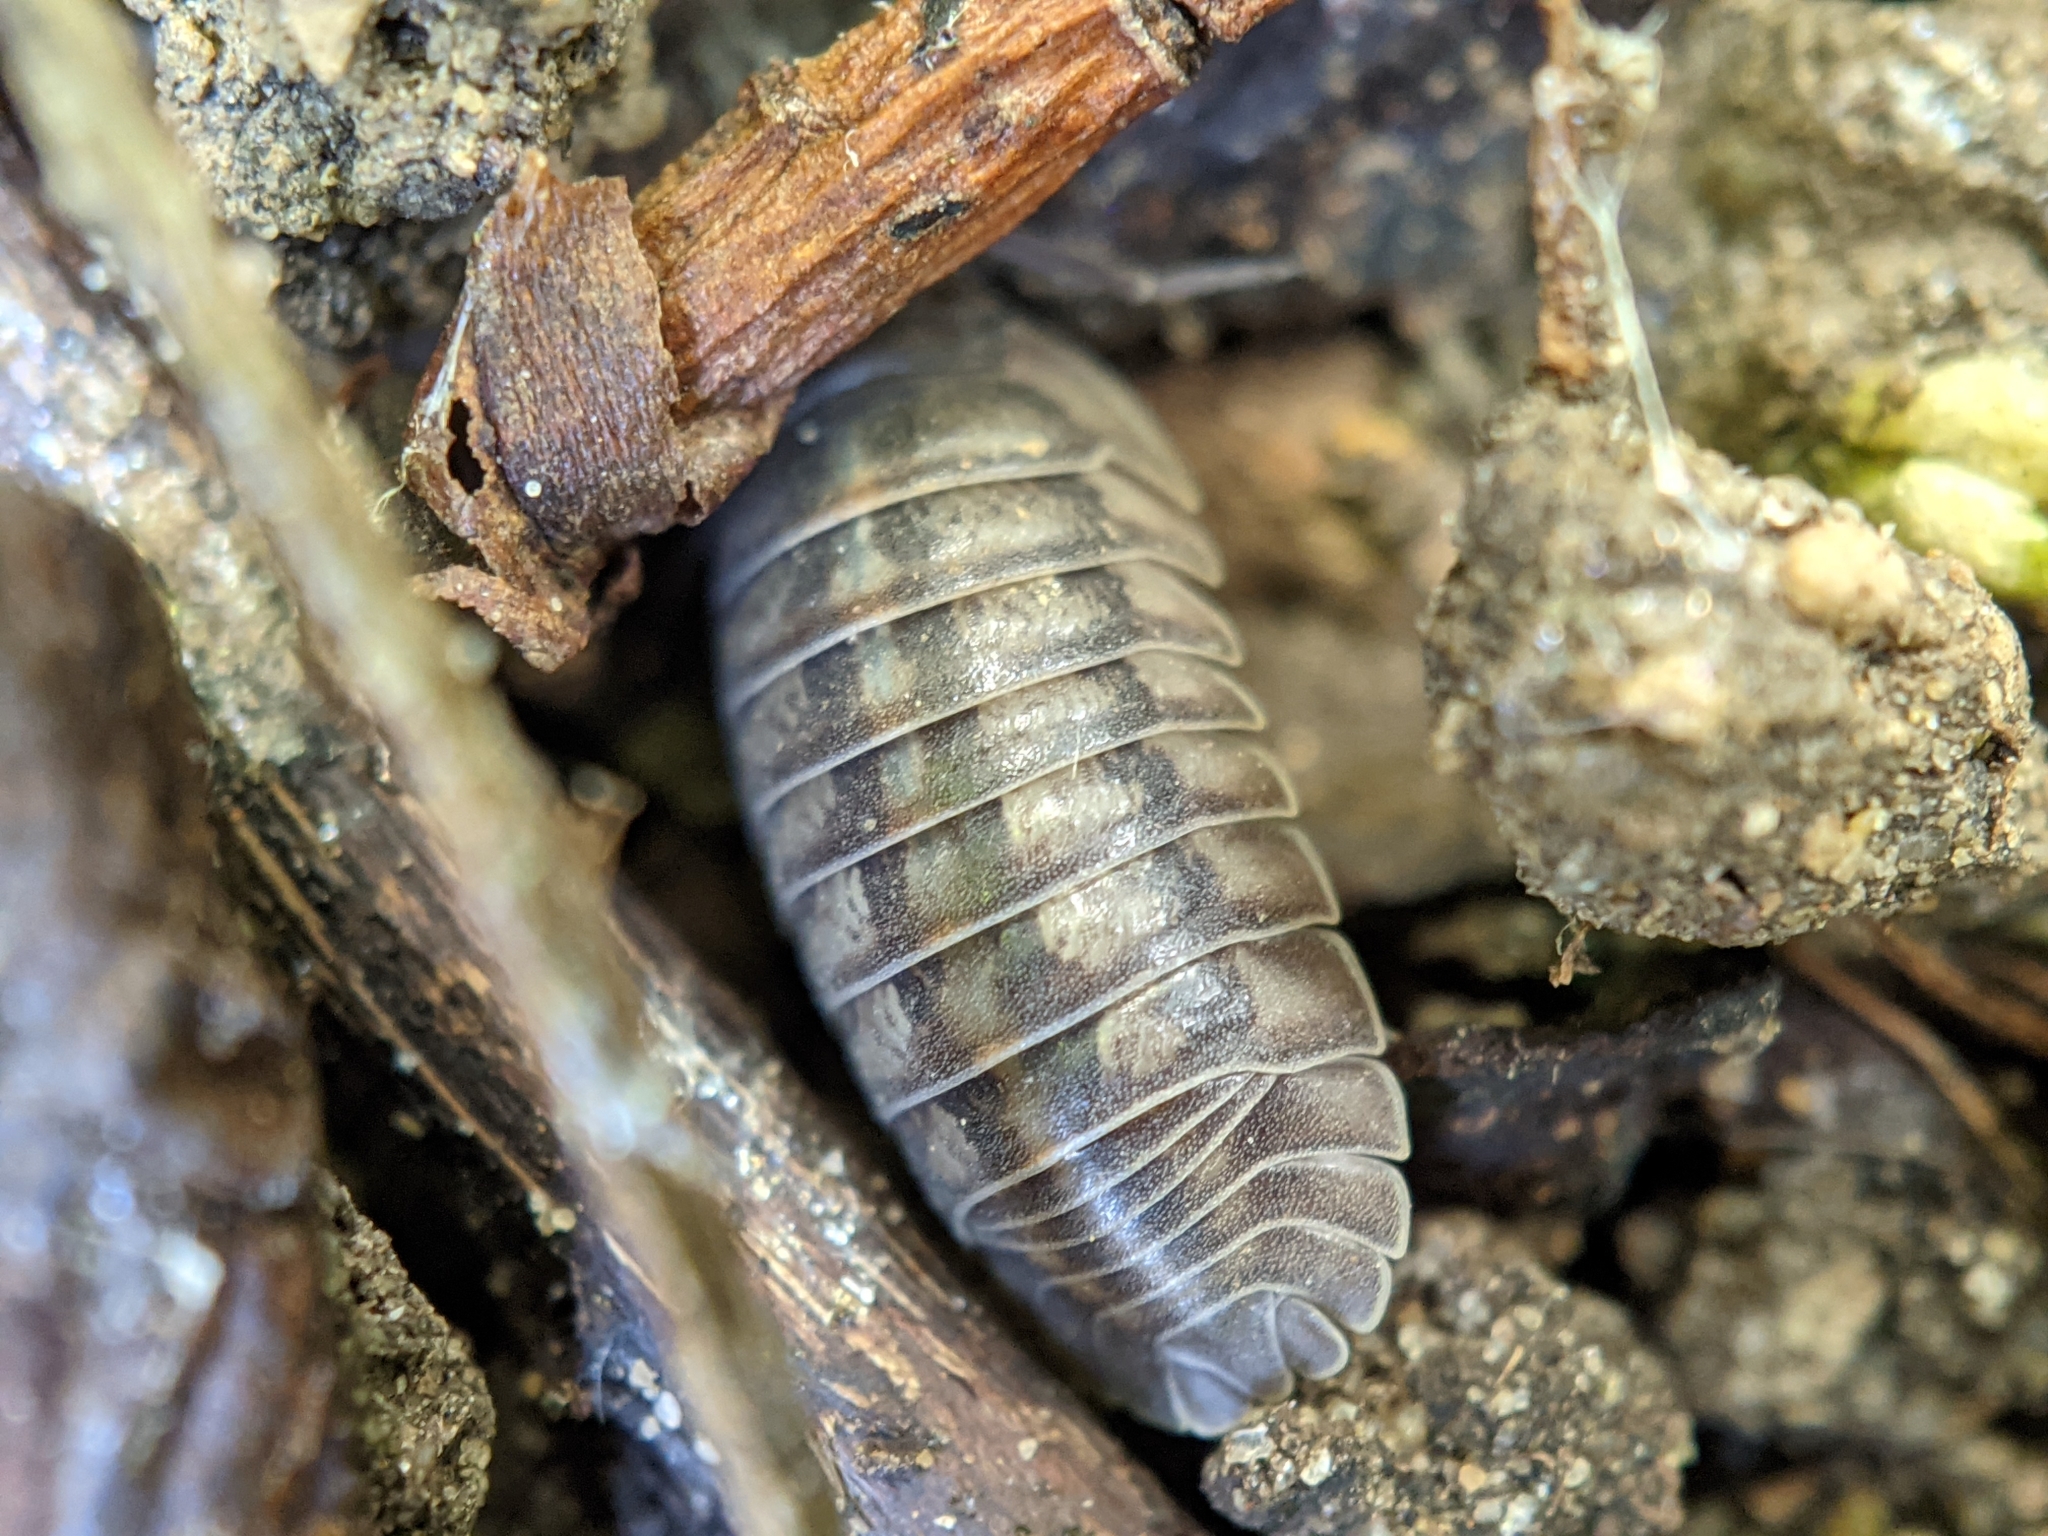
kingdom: Animalia
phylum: Arthropoda
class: Malacostraca
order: Isopoda
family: Armadillidiidae
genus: Armadillidium
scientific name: Armadillidium nasatum
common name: Isopod
